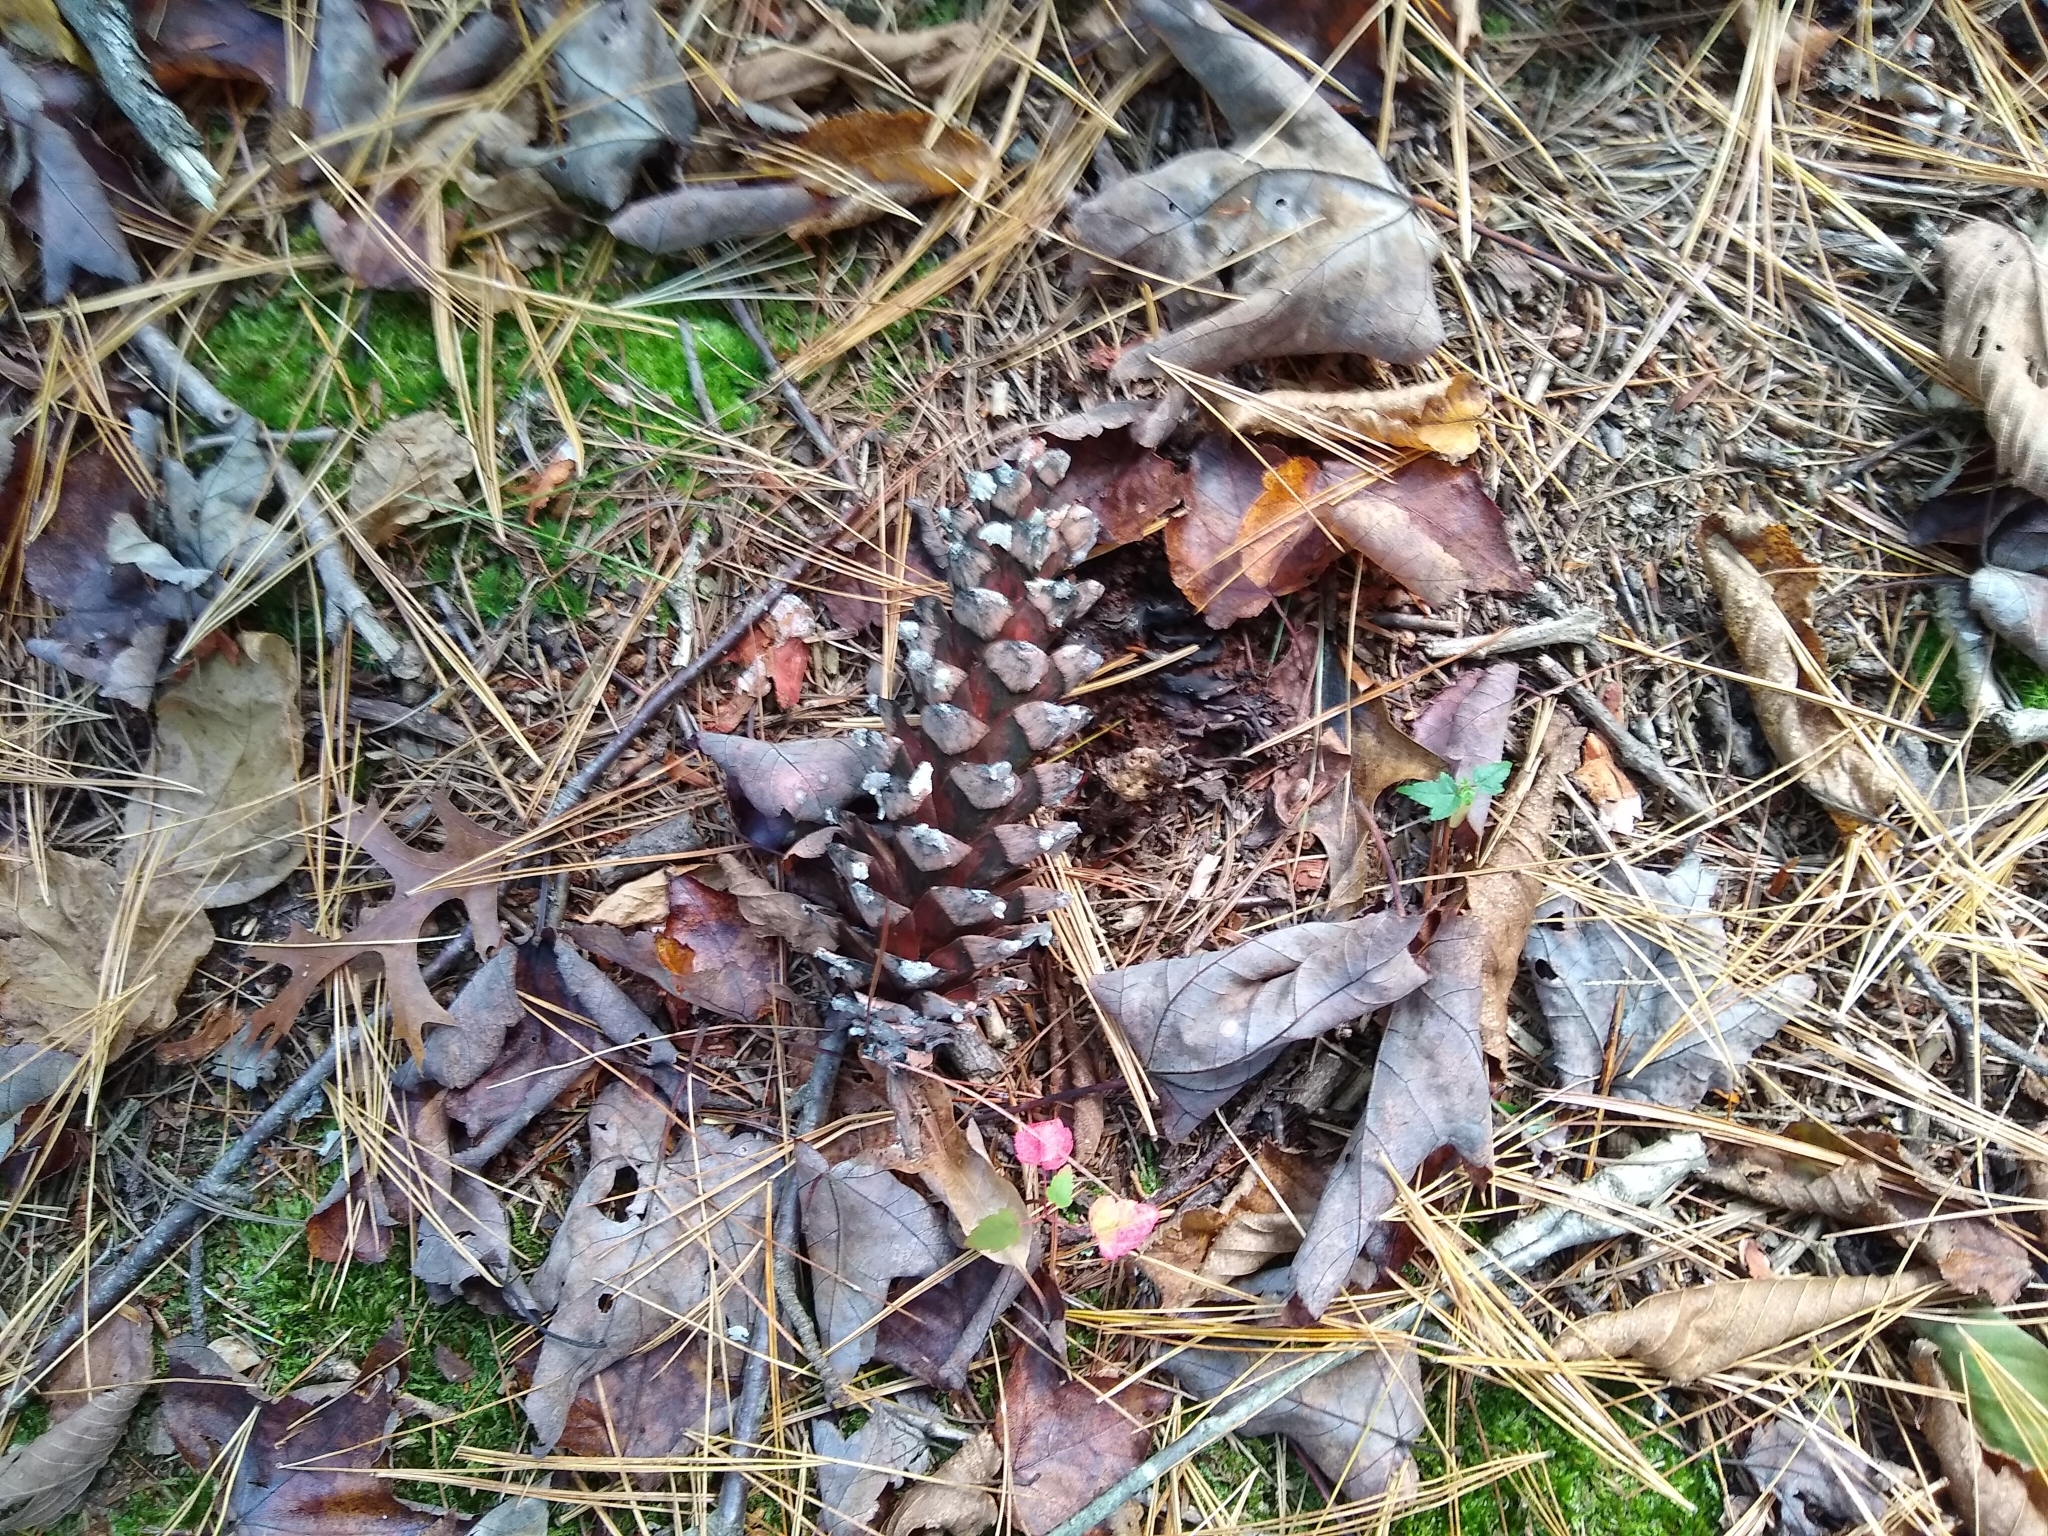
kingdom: Plantae
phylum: Tracheophyta
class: Pinopsida
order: Pinales
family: Pinaceae
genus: Pinus
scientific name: Pinus strobus
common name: Weymouth pine
